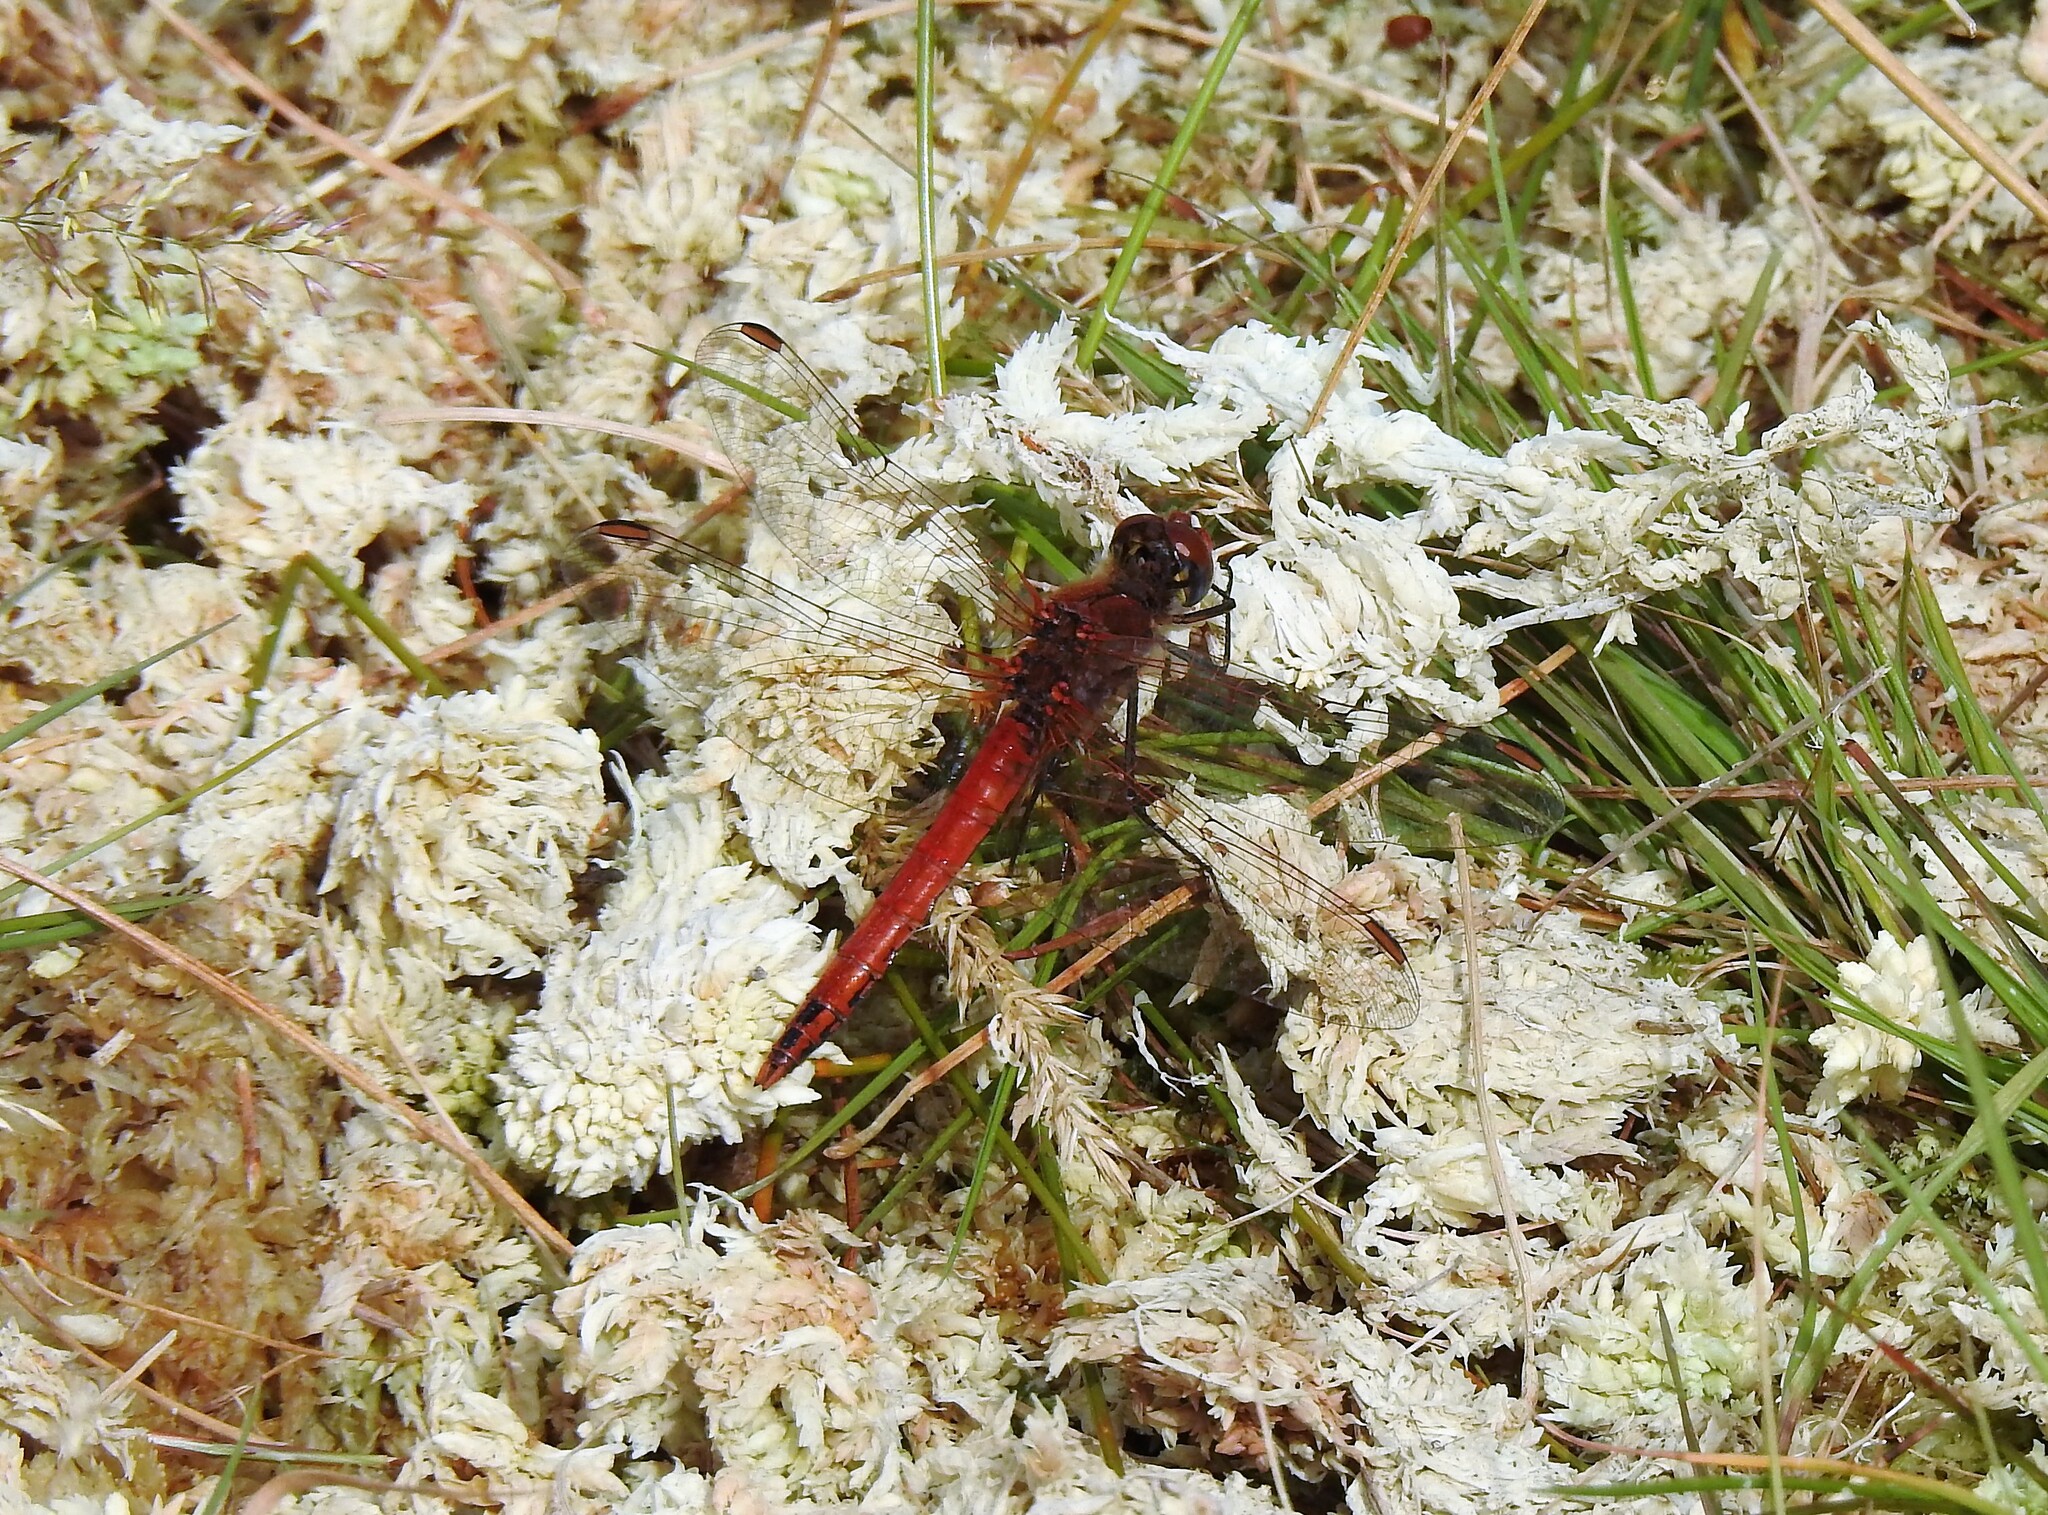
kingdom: Animalia
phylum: Arthropoda
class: Insecta
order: Odonata
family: Libellulidae
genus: Sympetrum
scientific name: Sympetrum fonscolombii
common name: Red-veined darter
